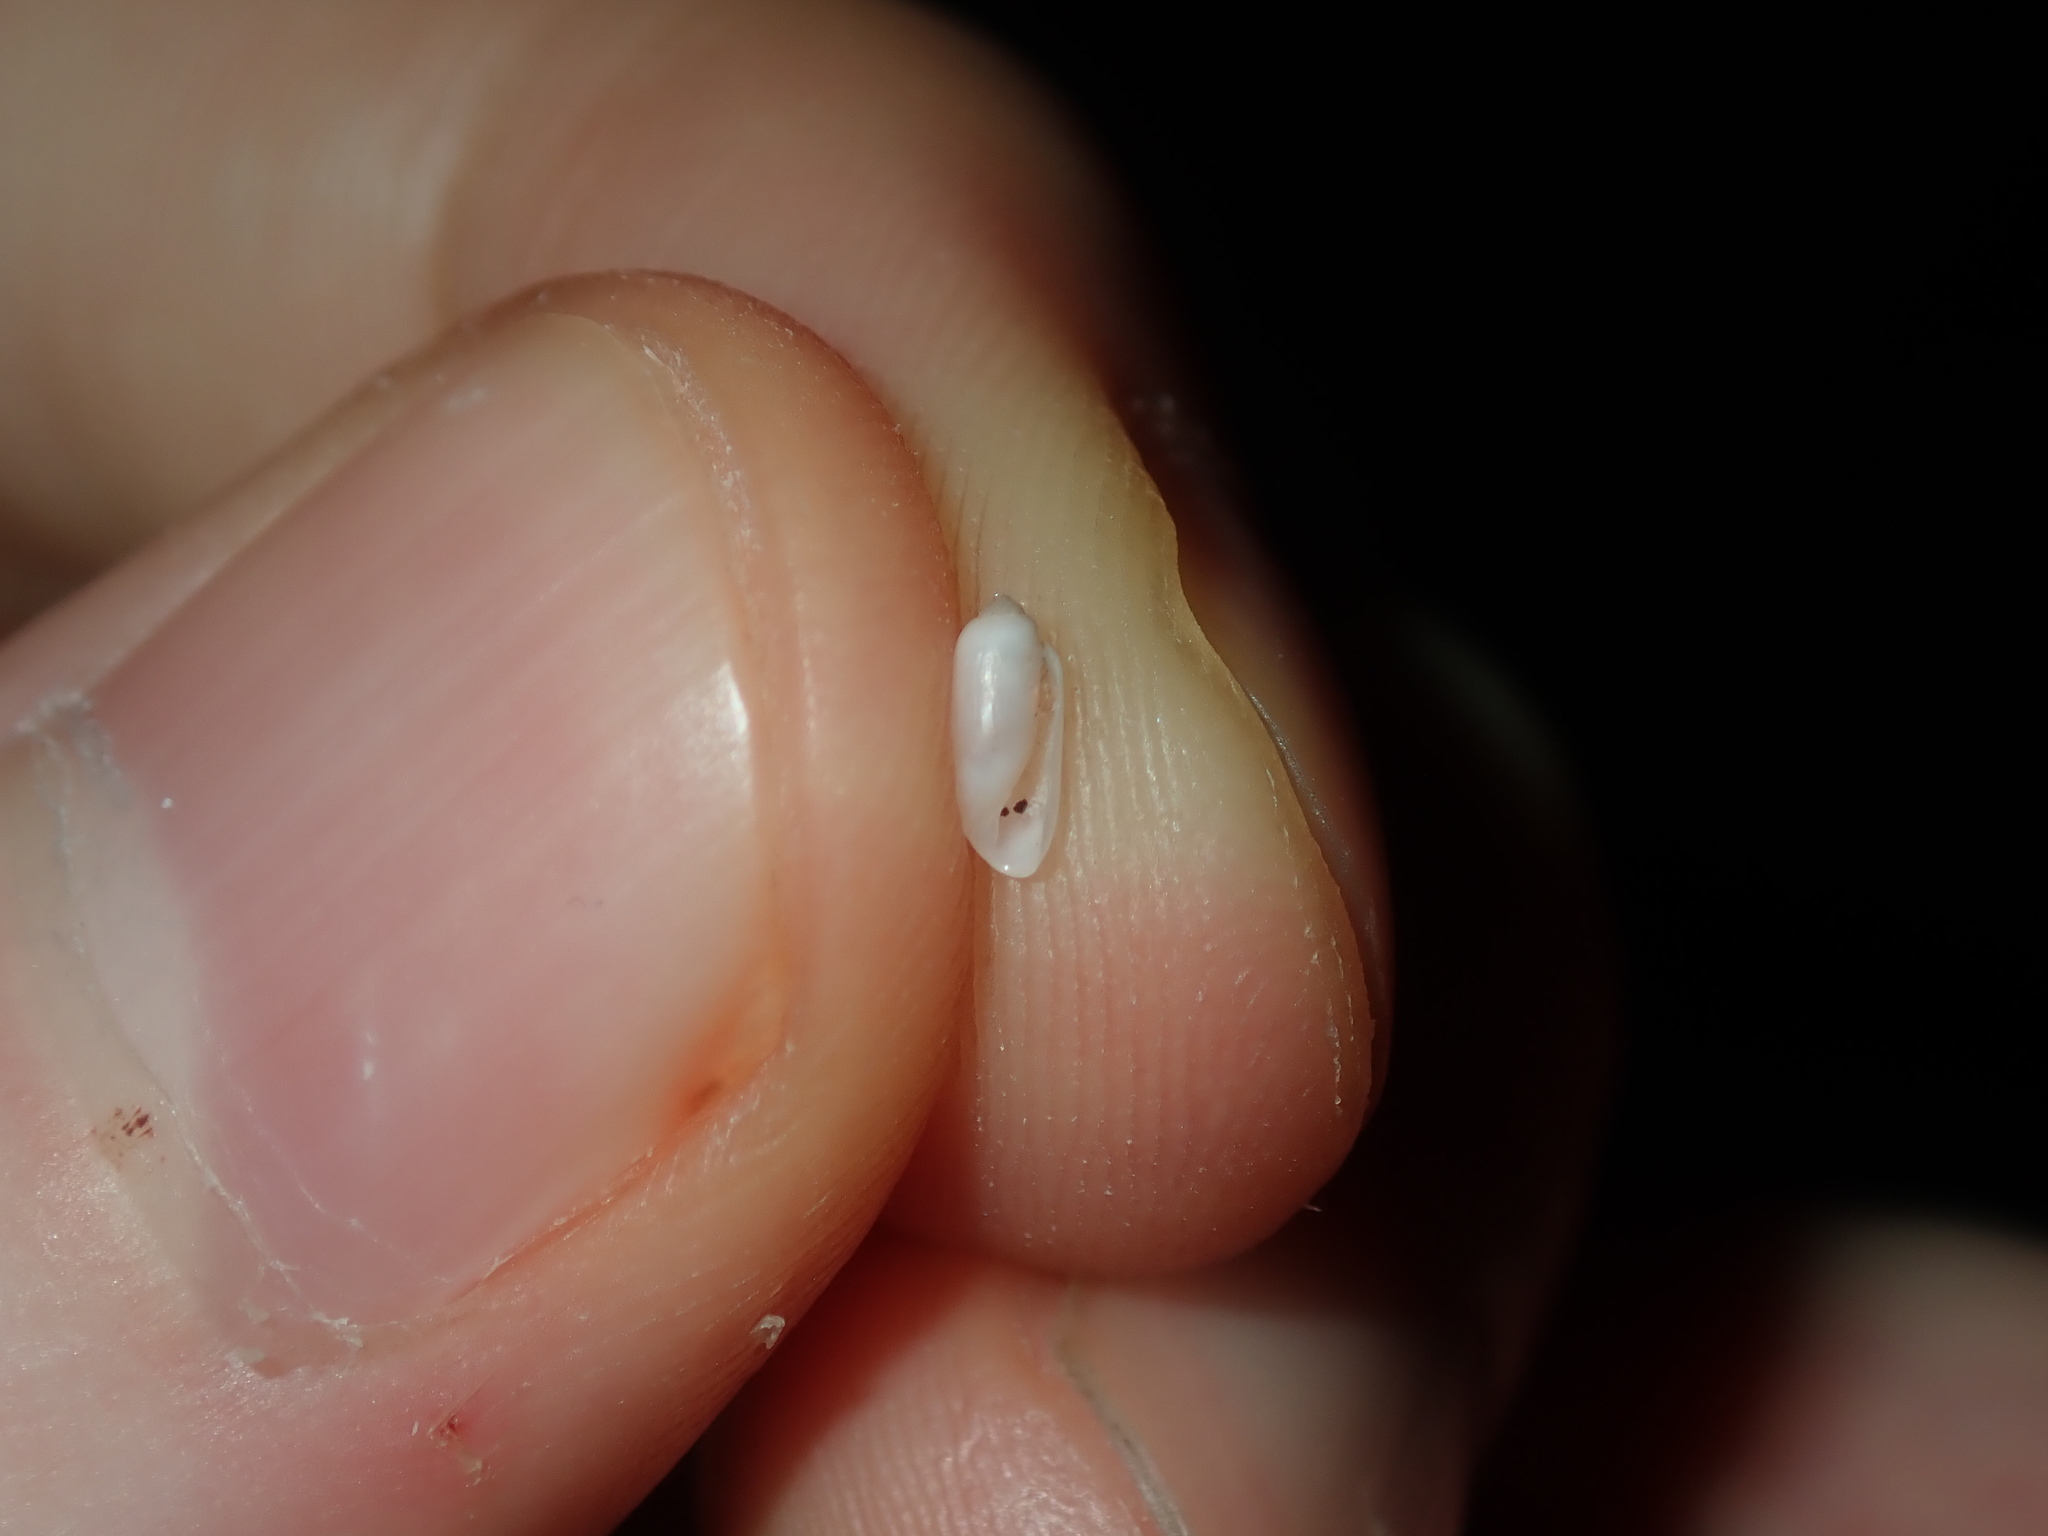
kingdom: Animalia
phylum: Mollusca
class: Gastropoda
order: Cephalaspidea
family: Tornatinidae
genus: Acteocina
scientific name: Acteocina apicina
